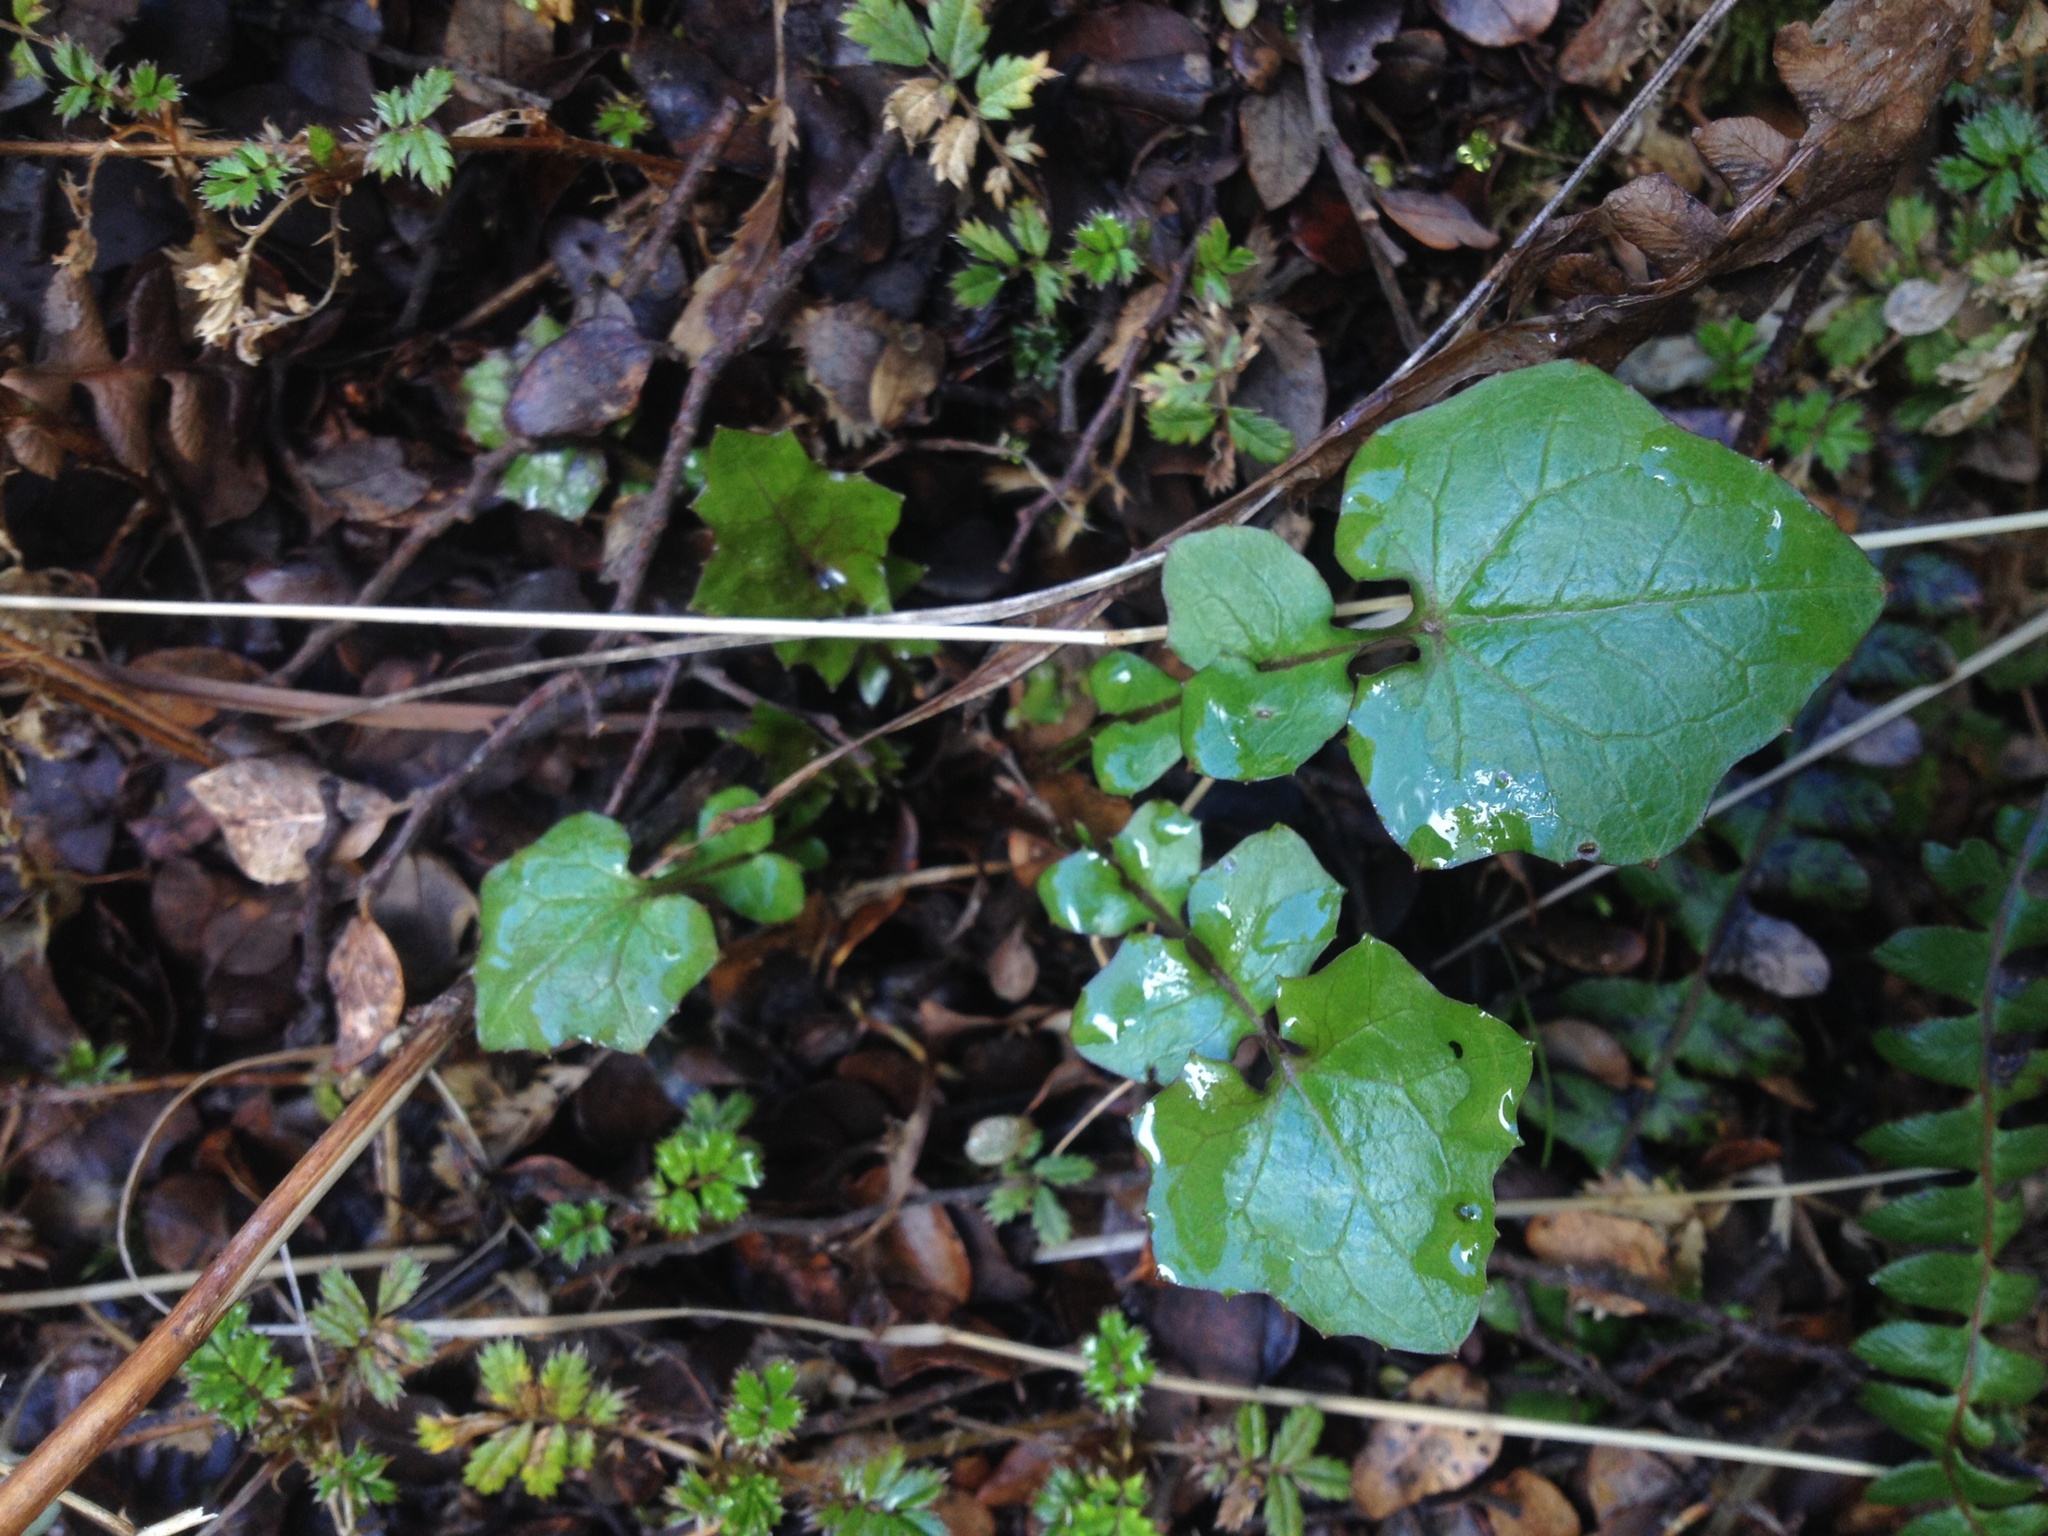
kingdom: Plantae
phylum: Tracheophyta
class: Magnoliopsida
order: Asterales
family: Asteraceae
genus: Mycelis
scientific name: Mycelis muralis
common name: Wall lettuce
